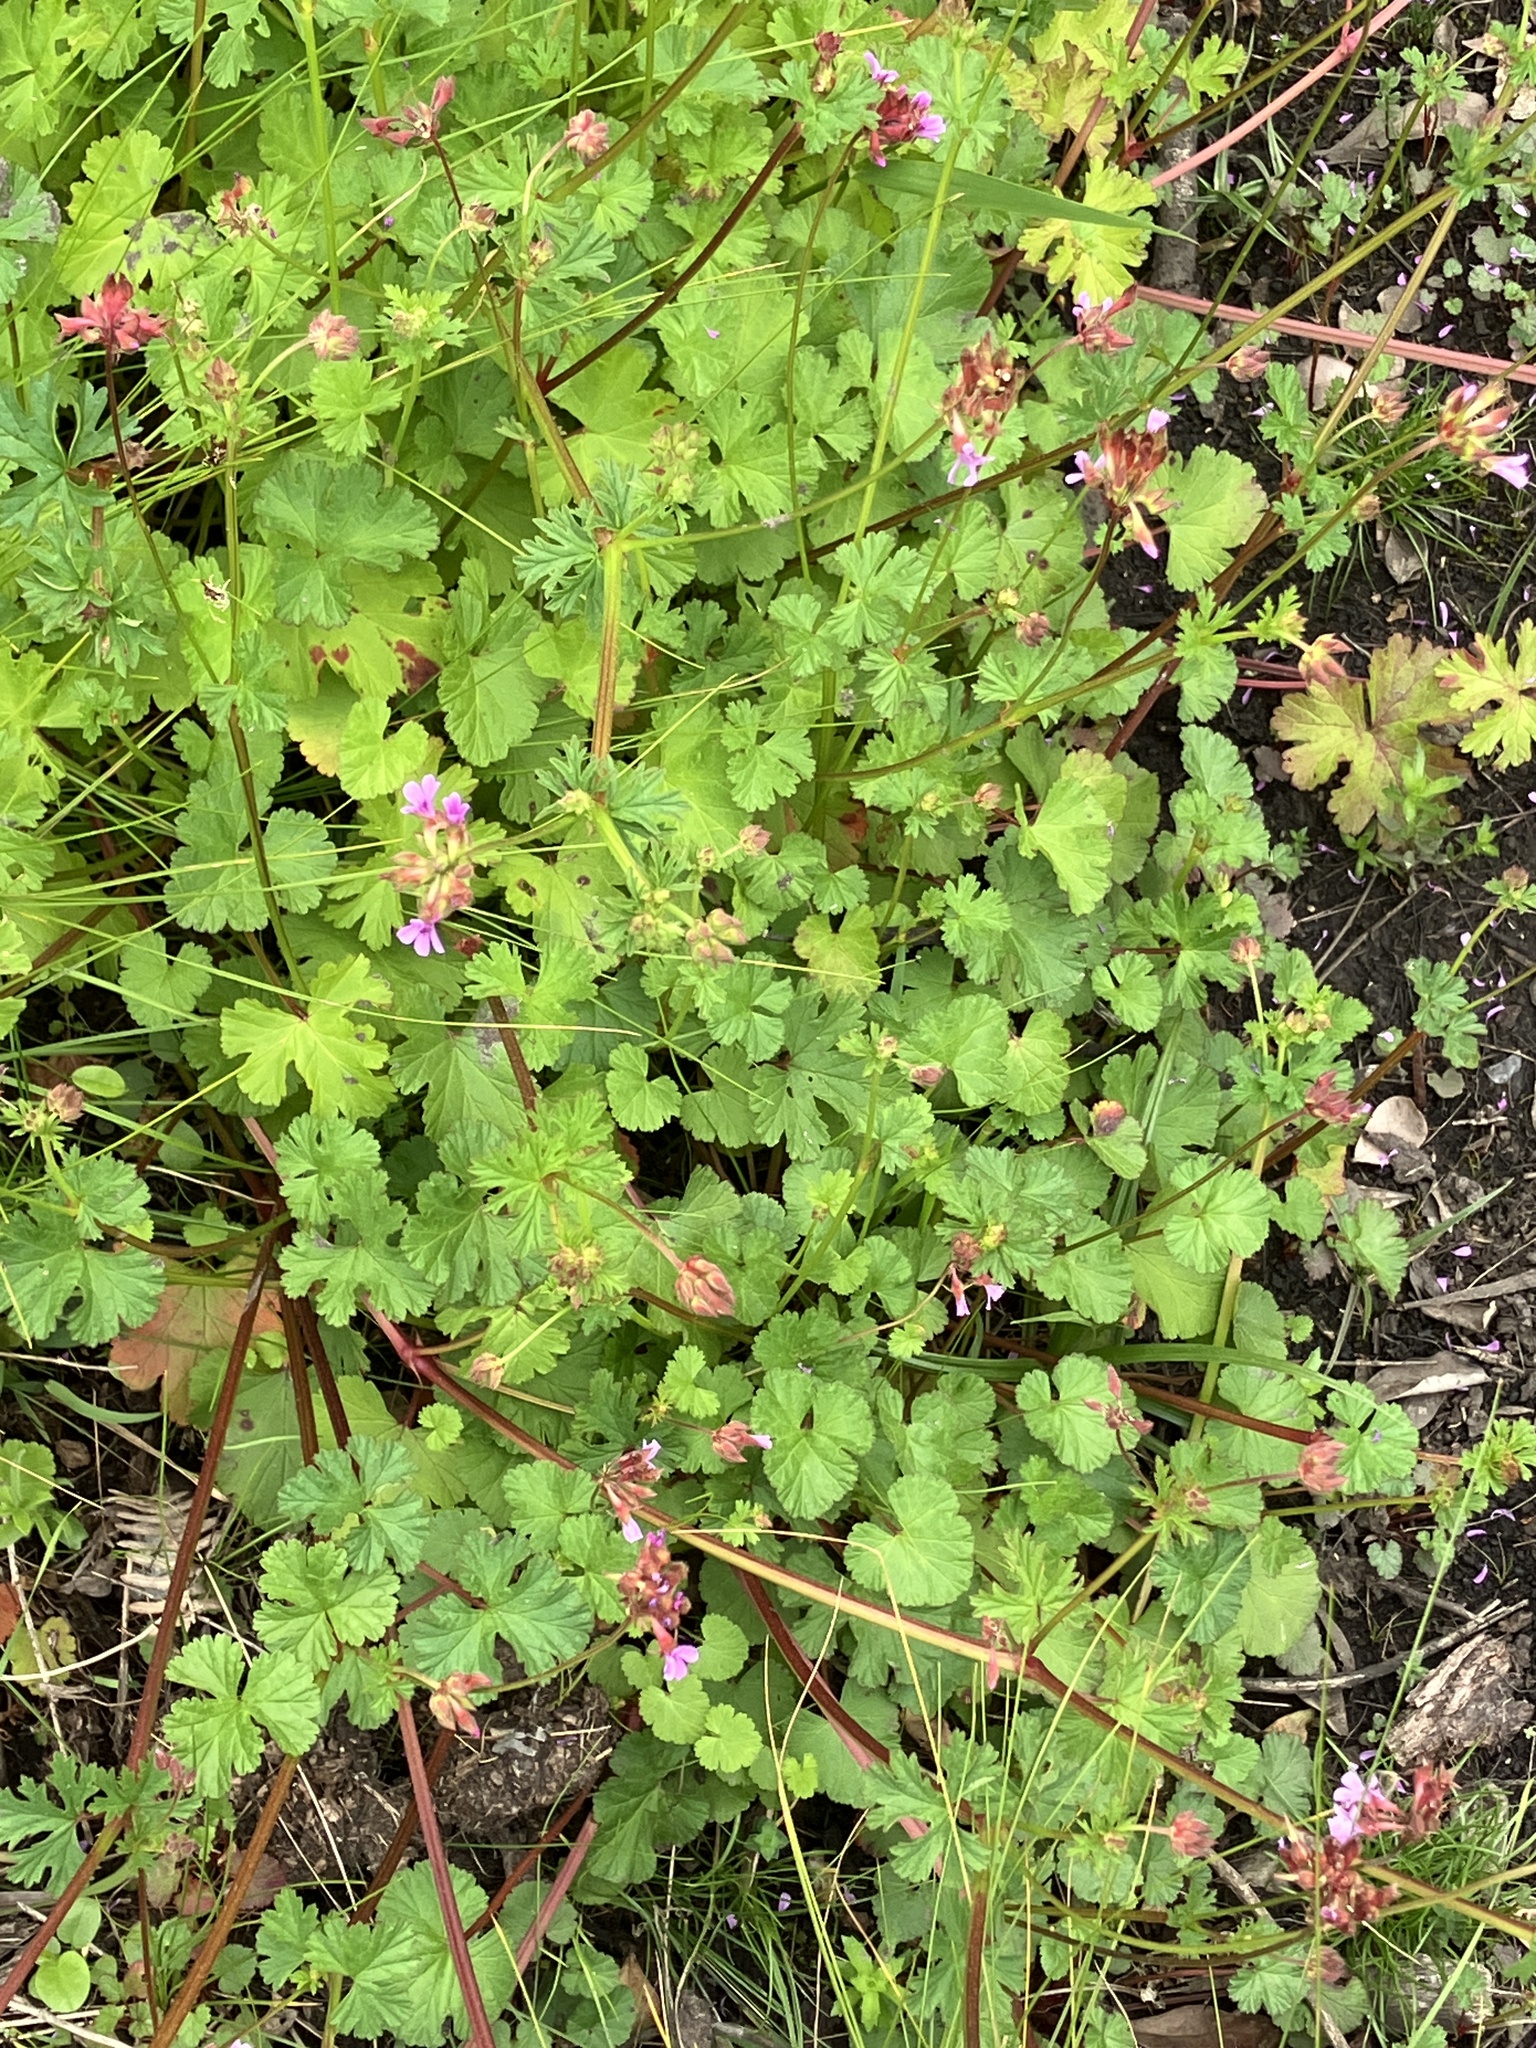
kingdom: Plantae
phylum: Tracheophyta
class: Magnoliopsida
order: Geraniales
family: Geraniaceae
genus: Pelargonium
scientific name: Pelargonium grossularioides
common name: Gooseberry geranium
